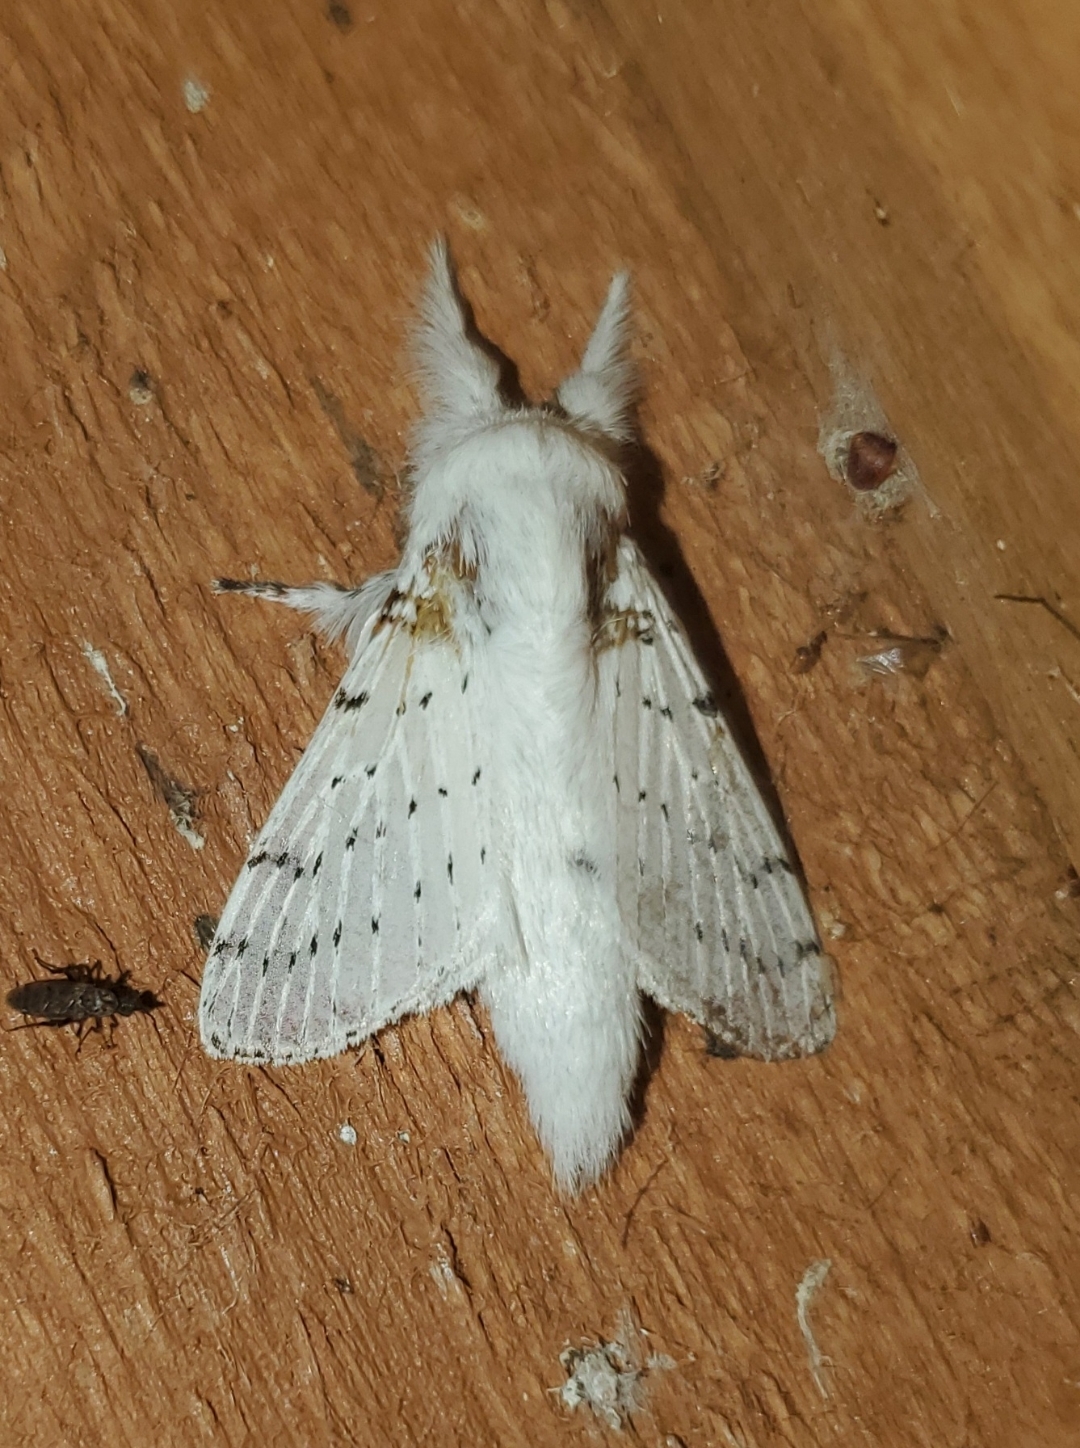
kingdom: Animalia
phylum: Arthropoda
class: Insecta
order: Lepidoptera
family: Lasiocampidae
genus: Artace
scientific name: Artace cribrarius
